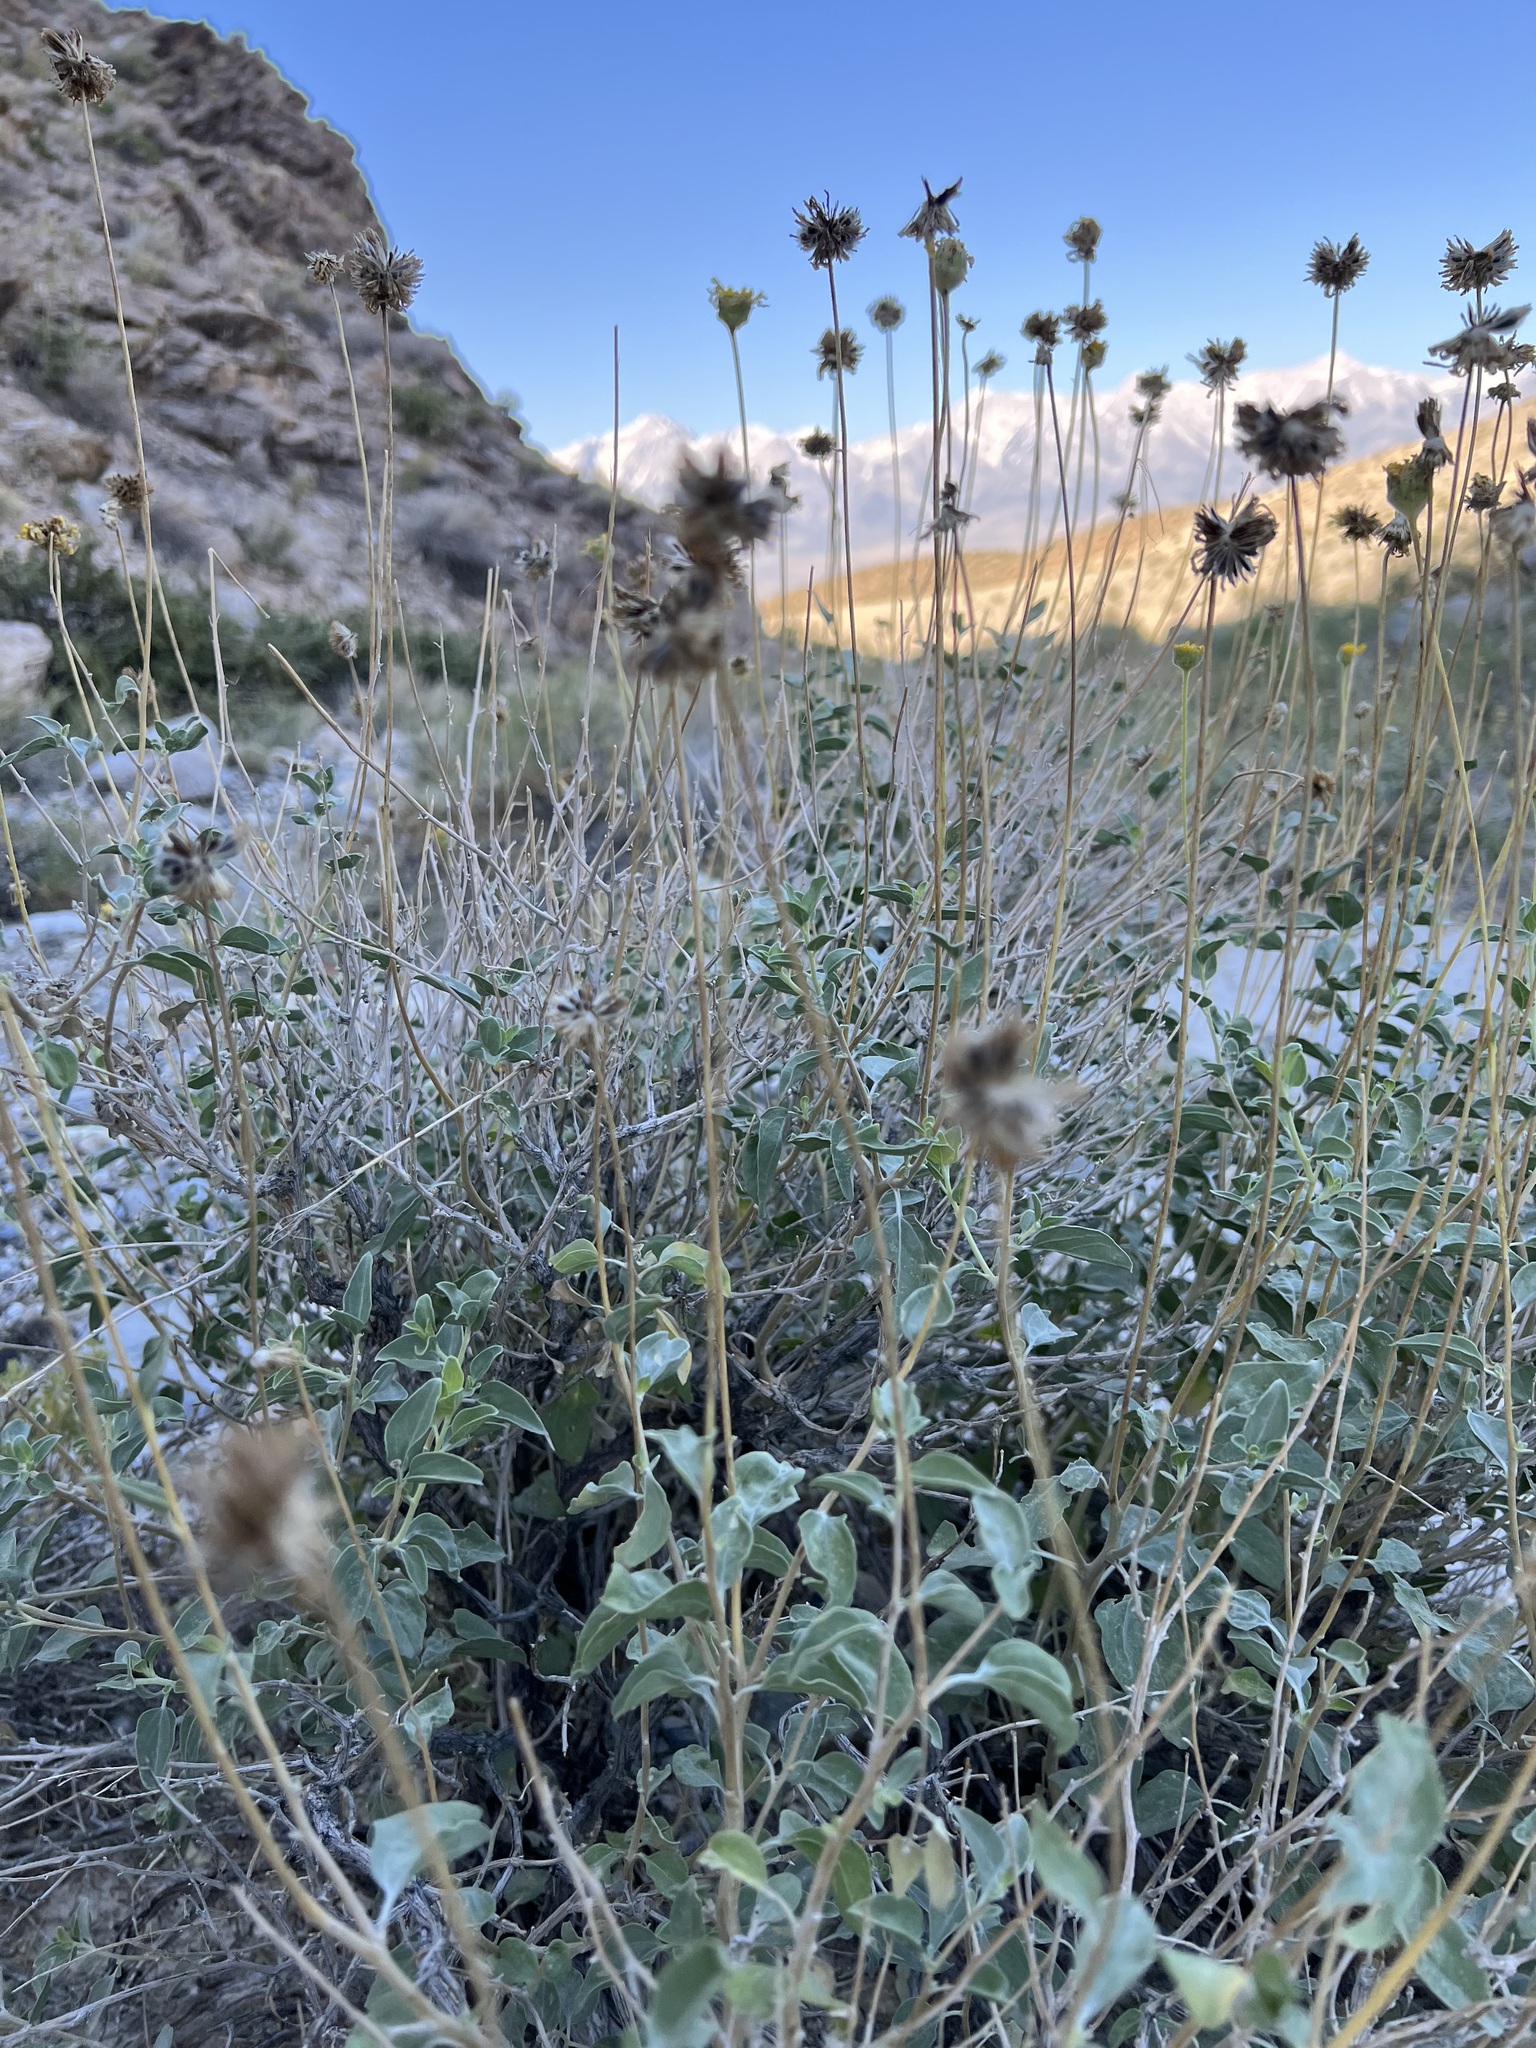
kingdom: Plantae
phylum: Tracheophyta
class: Magnoliopsida
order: Asterales
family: Asteraceae
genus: Encelia
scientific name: Encelia actoni
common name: Acton encelia
